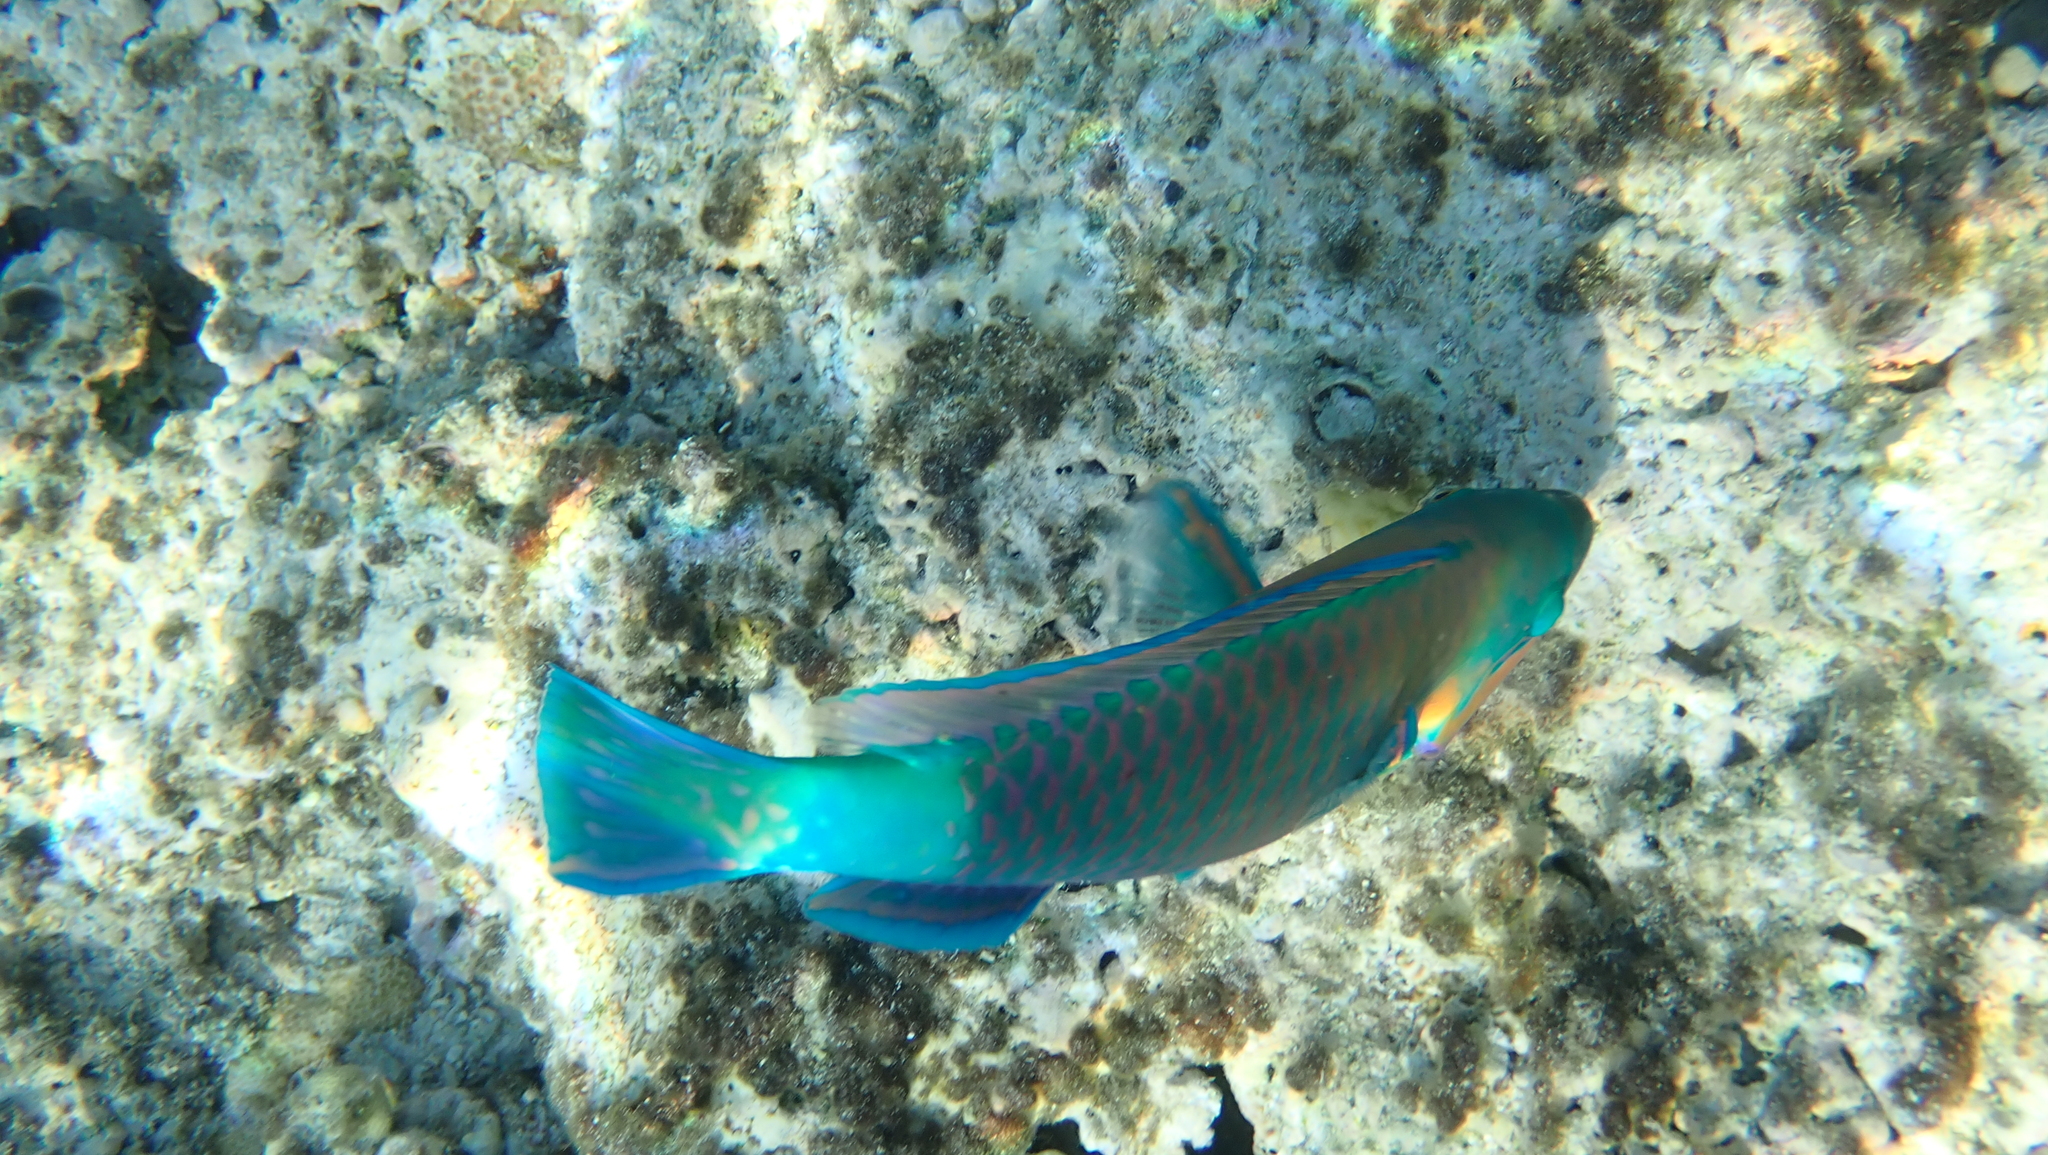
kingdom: Animalia
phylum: Chordata
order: Perciformes
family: Scaridae
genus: Chlorurus
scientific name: Chlorurus sordidus
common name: Bullethead parrotfish
